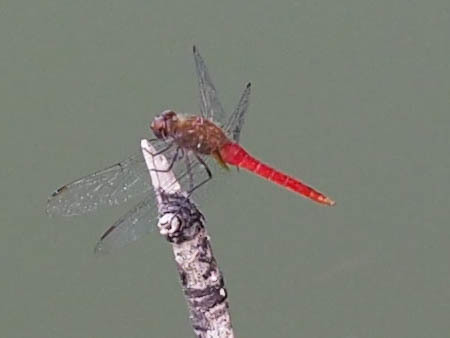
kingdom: Animalia
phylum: Arthropoda
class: Insecta
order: Odonata
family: Libellulidae
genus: Brachymesia
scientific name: Brachymesia furcata
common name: Red-taled pennant
